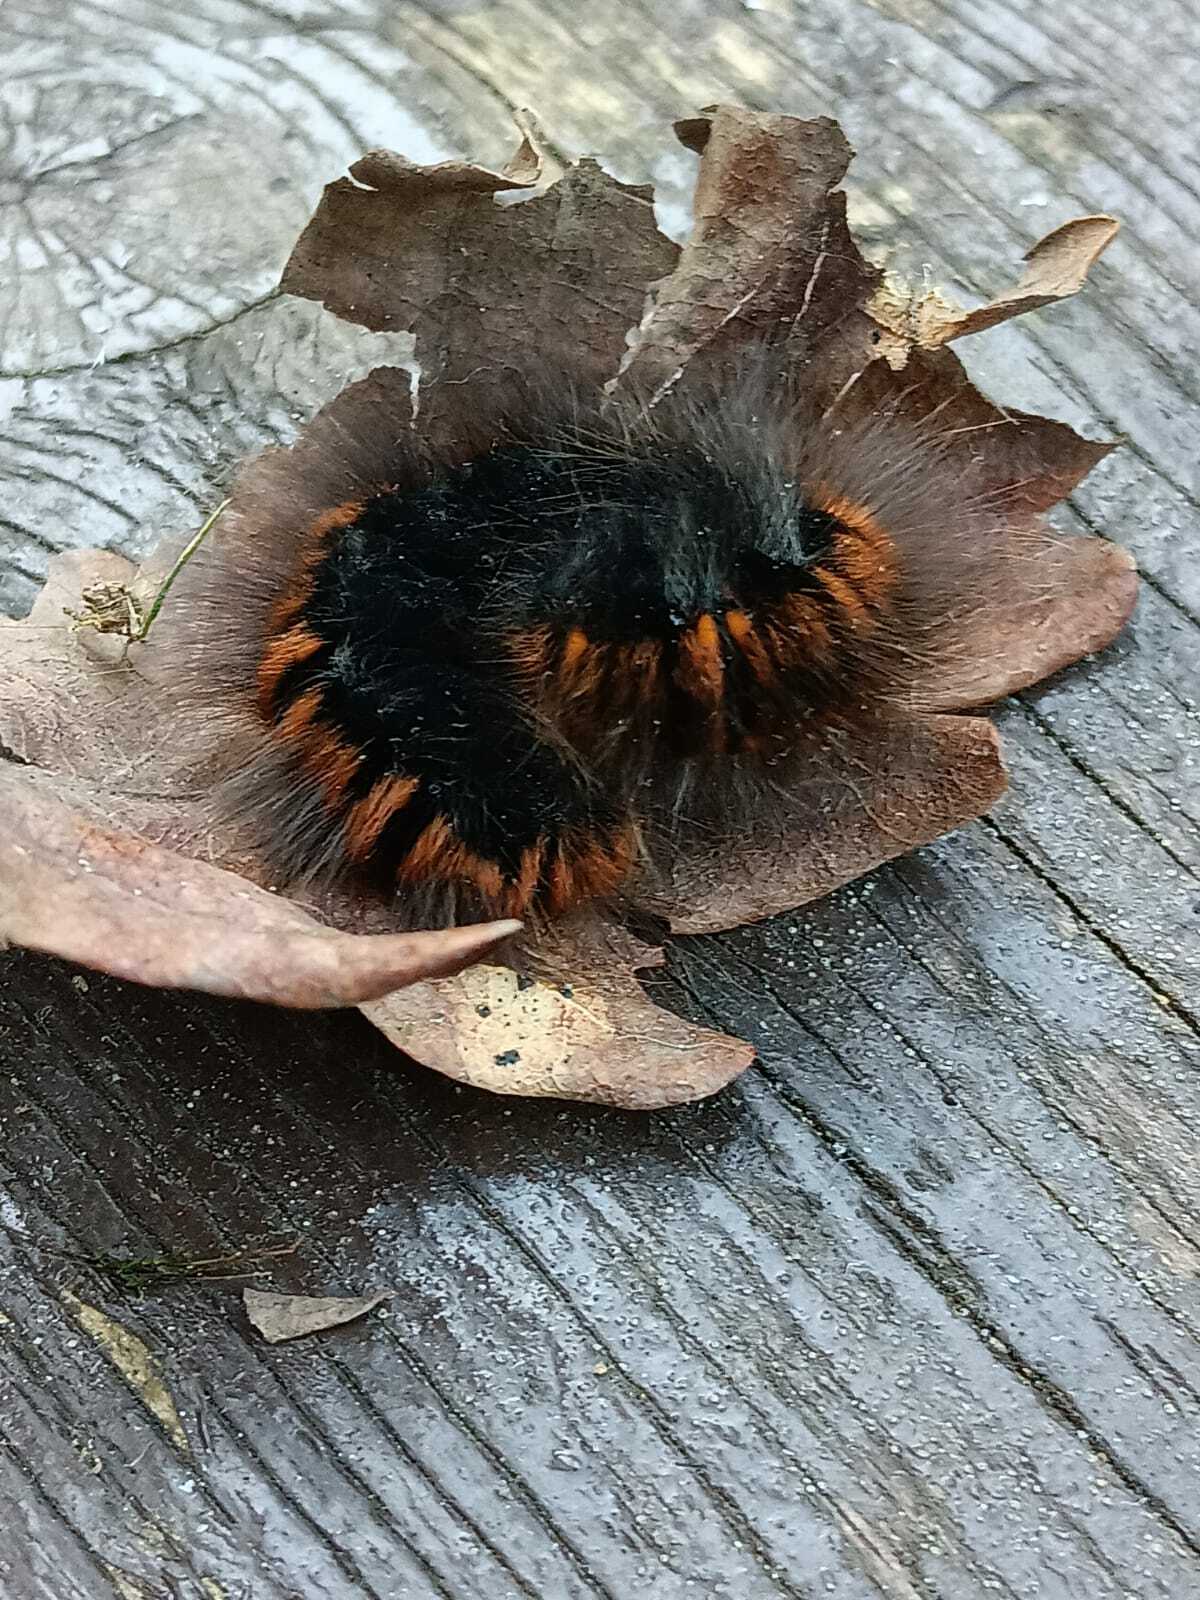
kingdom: Animalia
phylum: Arthropoda
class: Insecta
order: Lepidoptera
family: Lasiocampidae
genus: Macrothylacia
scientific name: Macrothylacia rubi
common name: Fox moth
